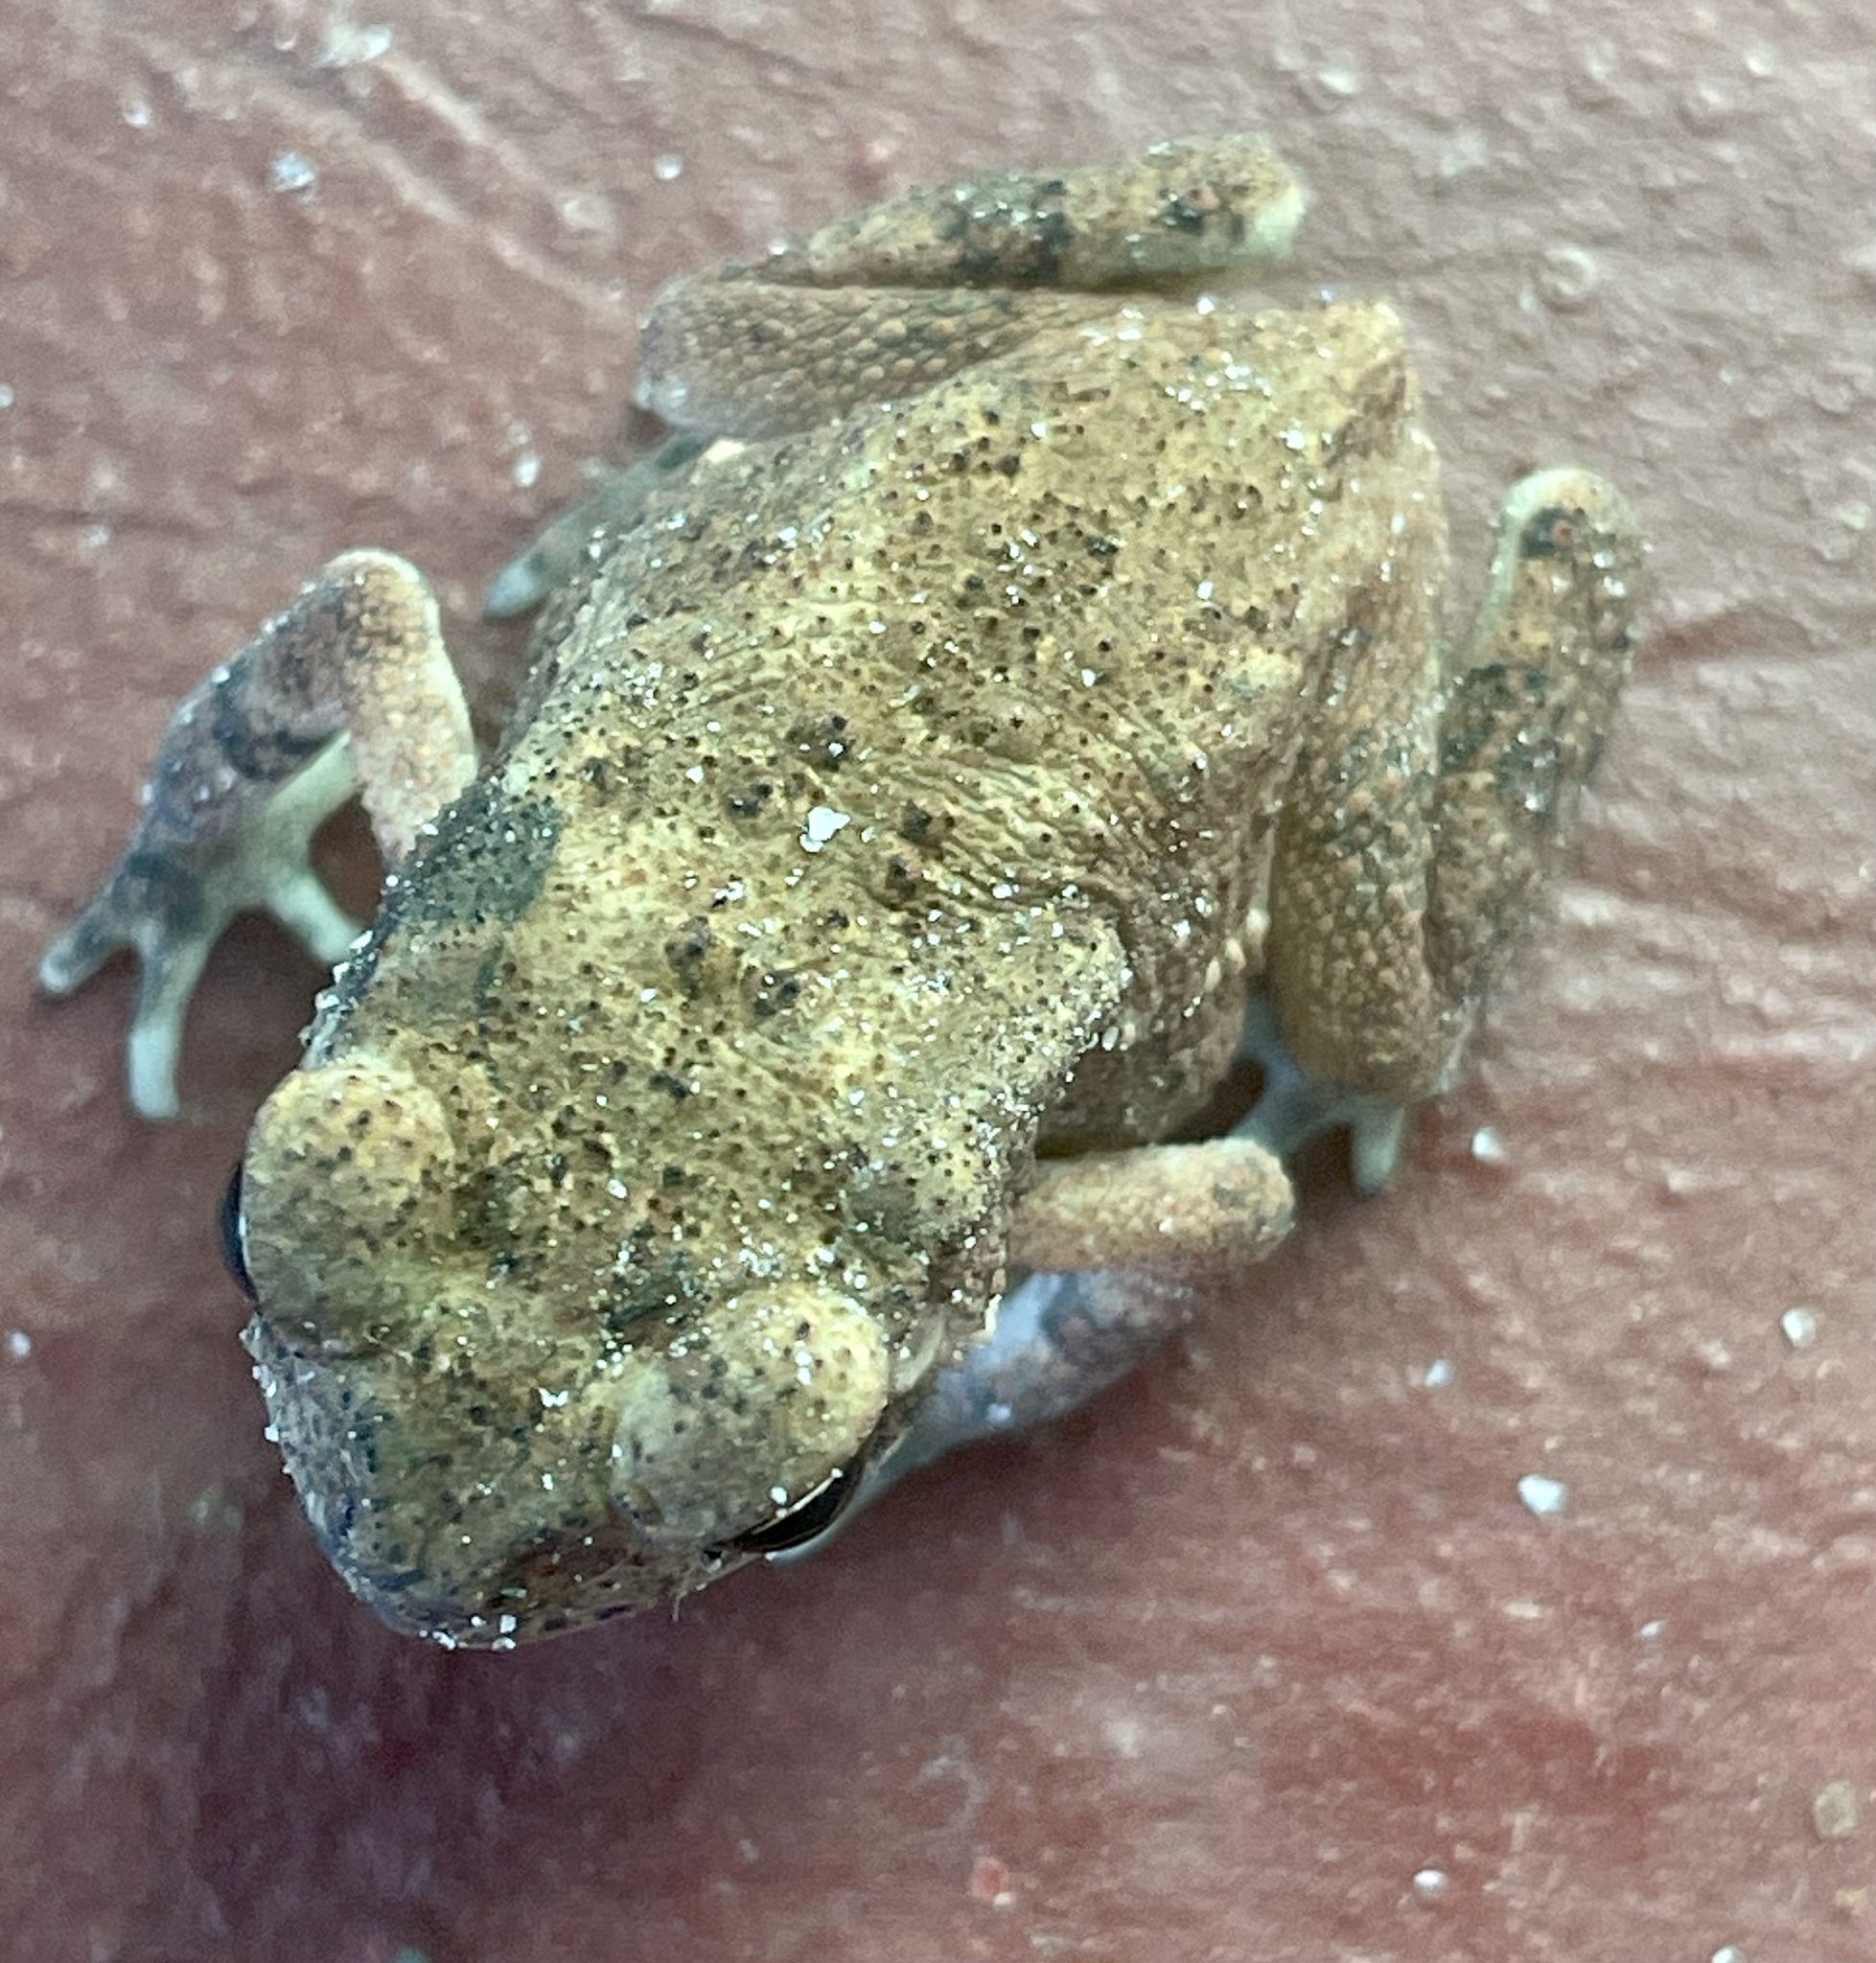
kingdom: Animalia
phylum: Chordata
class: Amphibia
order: Anura
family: Bufonidae
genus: Duttaphrynus
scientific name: Duttaphrynus melanostictus
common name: Common sunda toad
